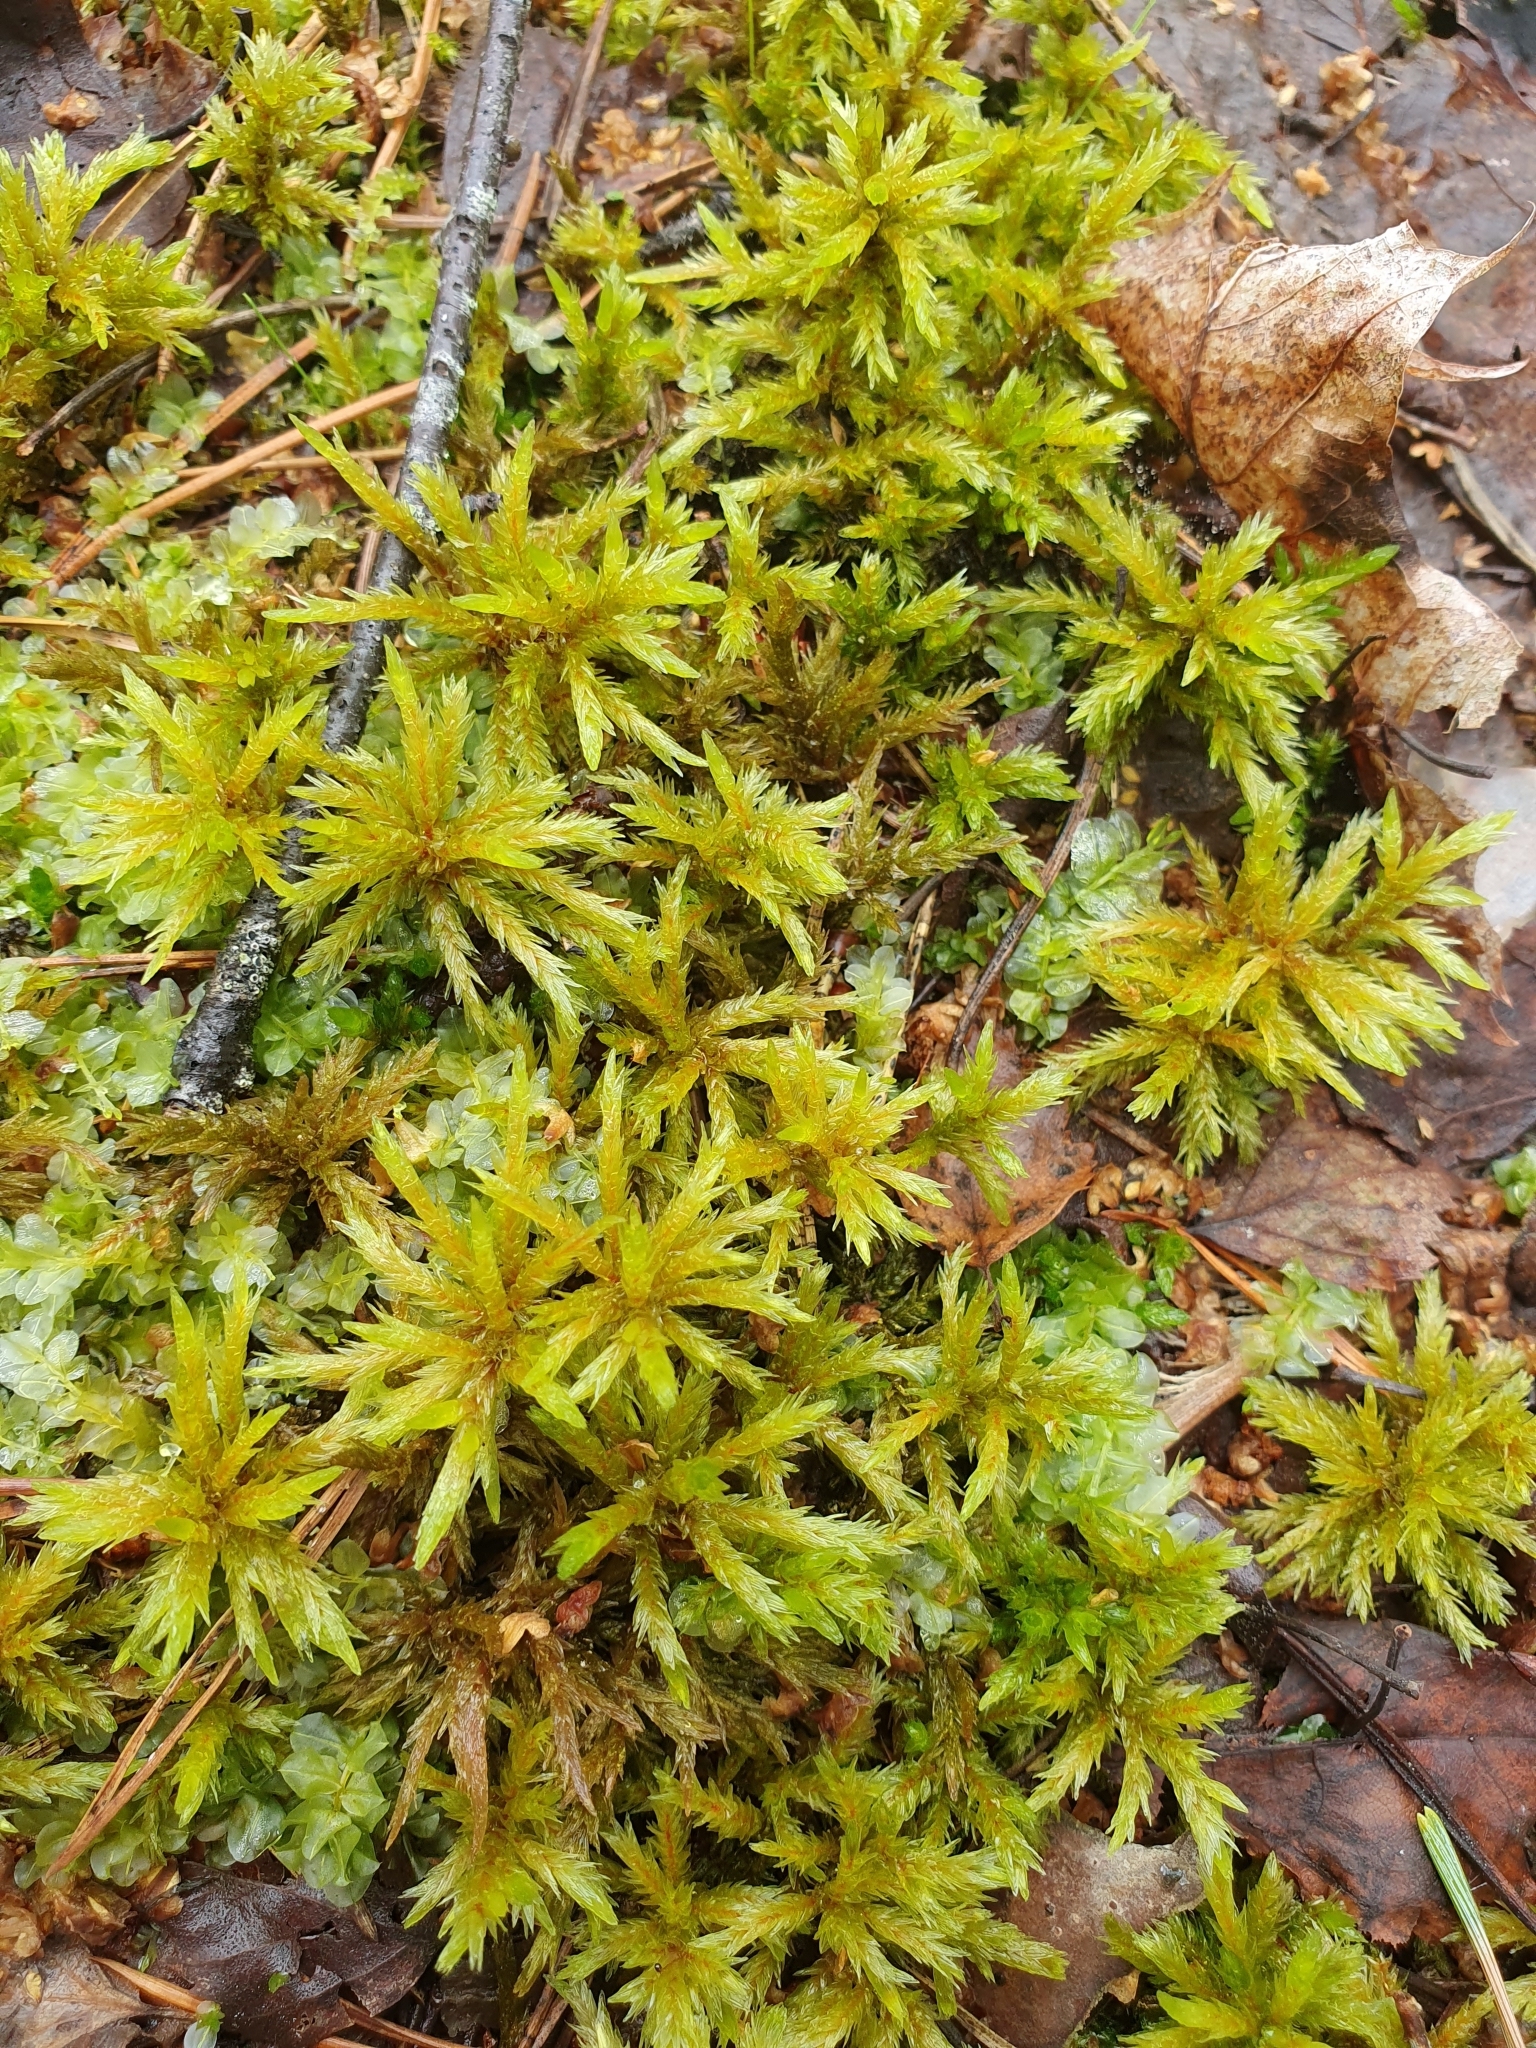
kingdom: Plantae
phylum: Bryophyta
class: Bryopsida
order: Hypnales
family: Climaciaceae
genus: Climacium
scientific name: Climacium dendroides
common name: Northern tree moss
